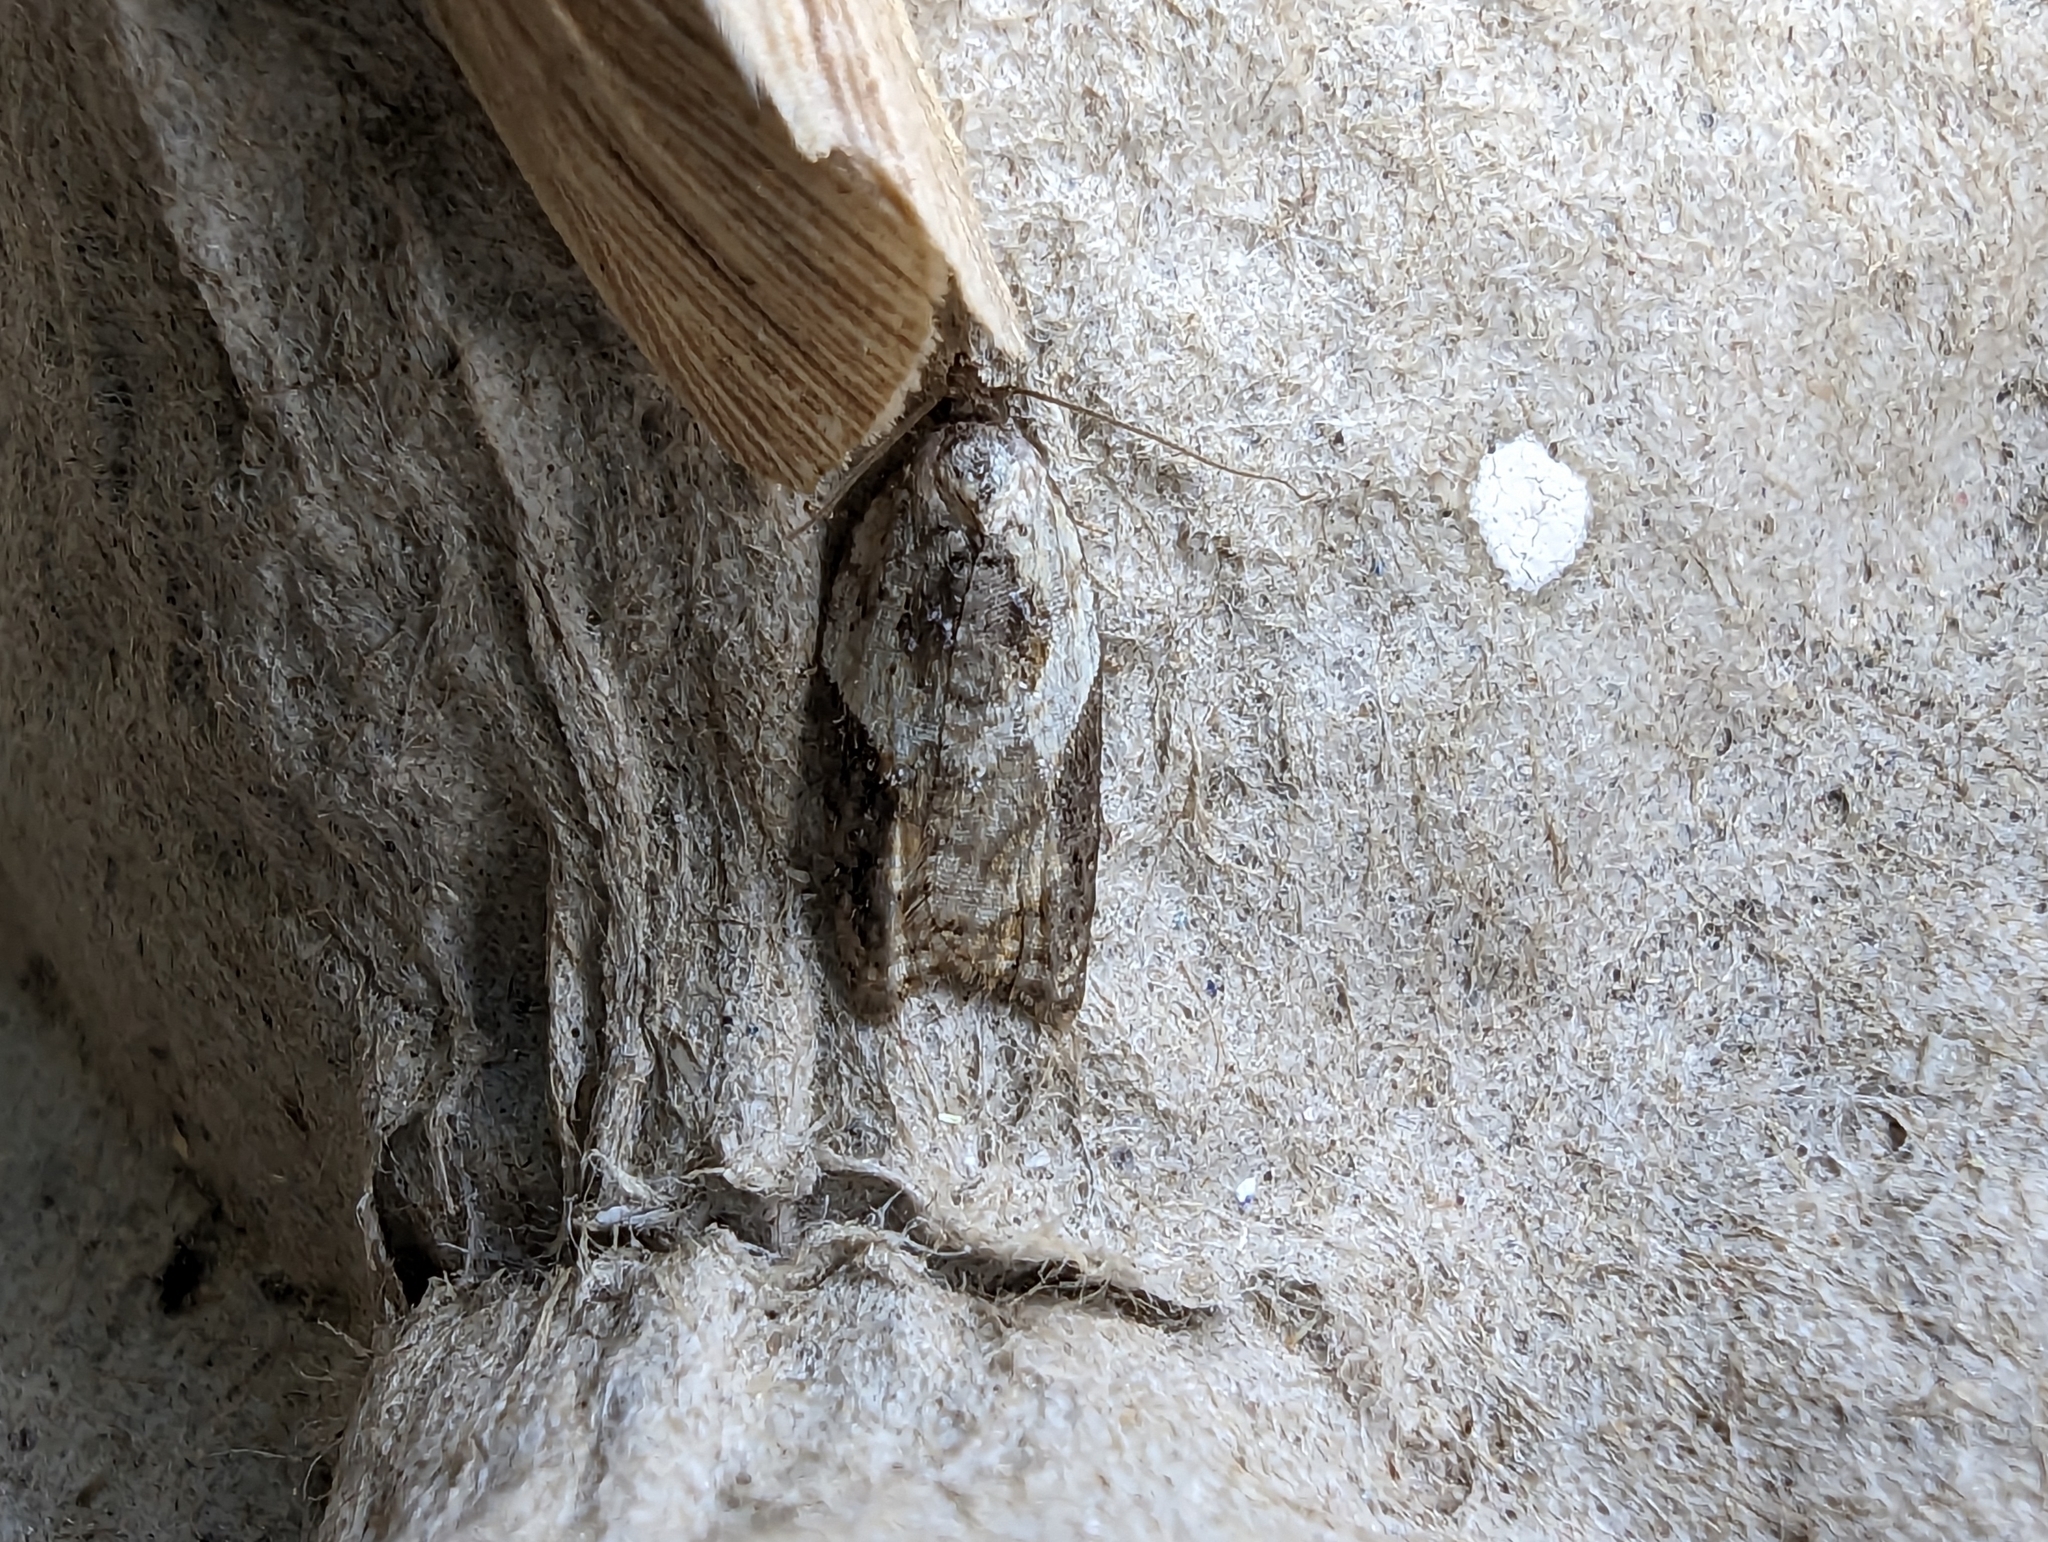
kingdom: Animalia
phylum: Arthropoda
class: Insecta
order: Lepidoptera
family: Tortricidae
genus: Acleris
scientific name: Acleris variegana
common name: Garden rose tortrix
